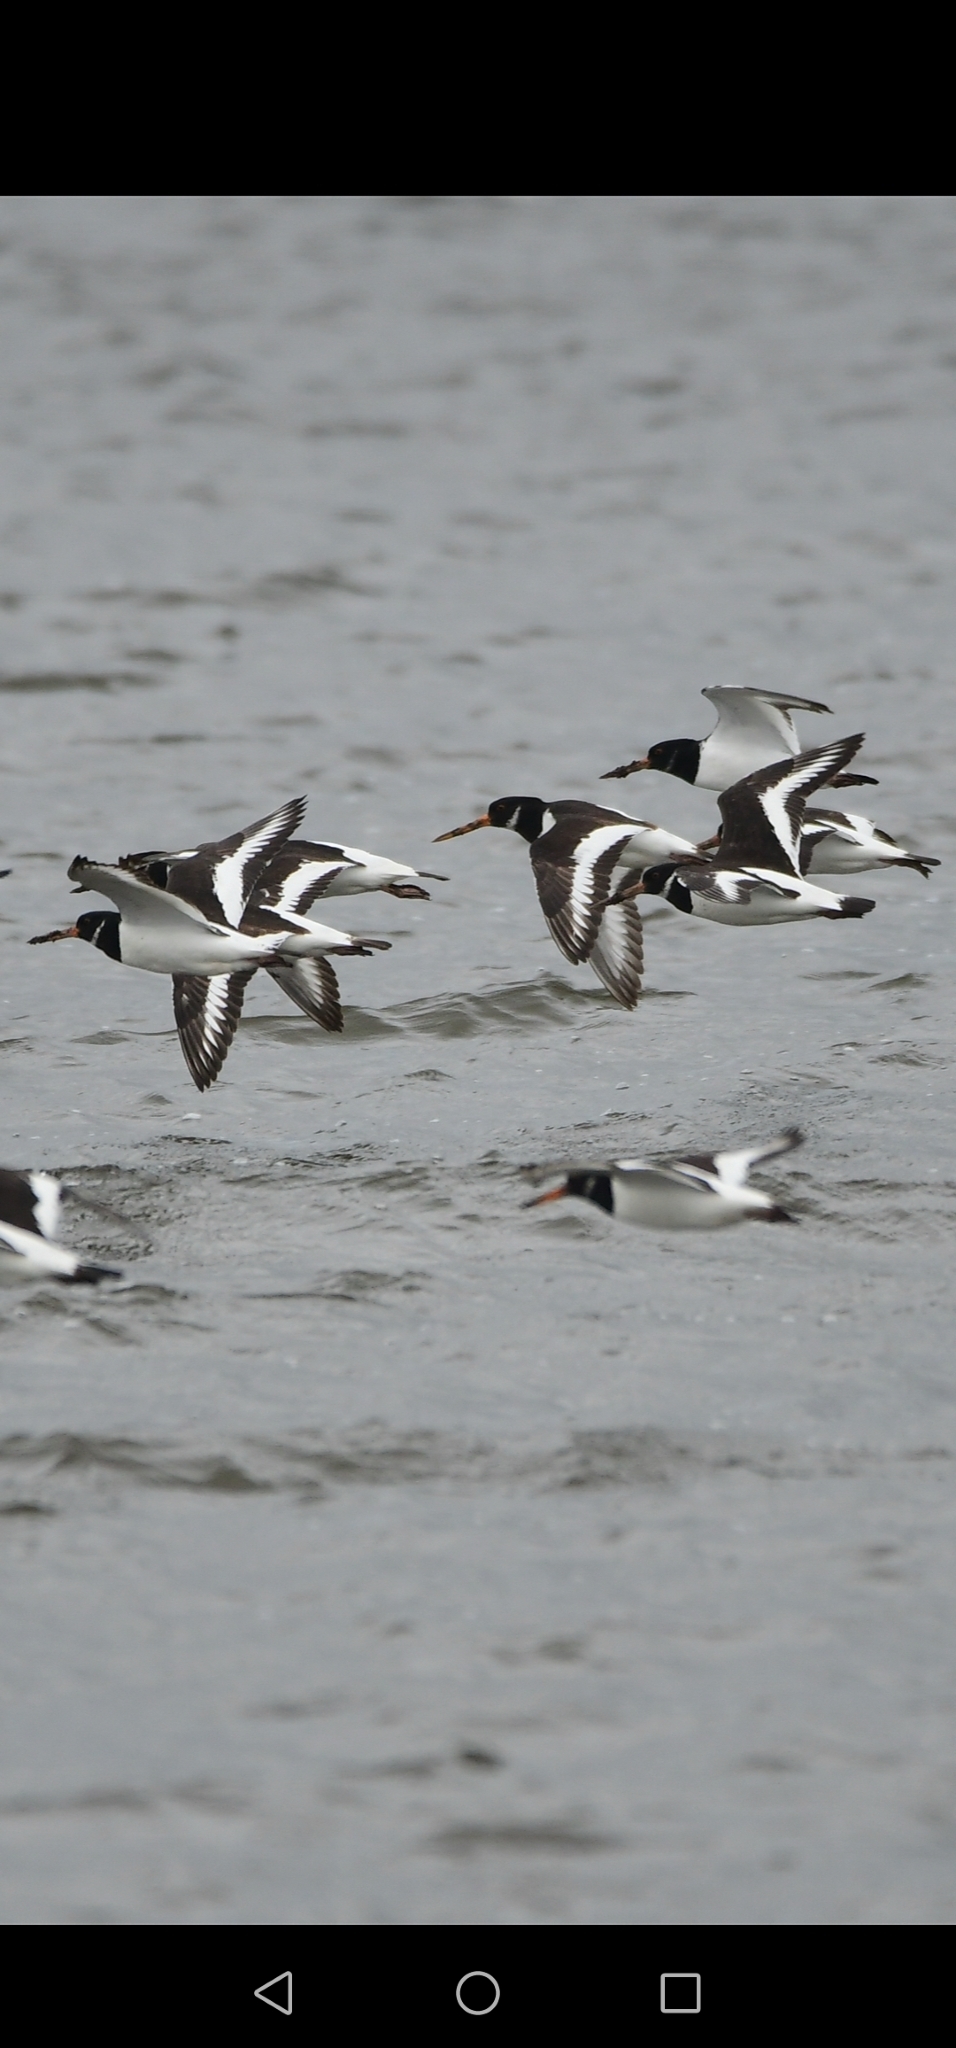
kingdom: Animalia
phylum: Chordata
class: Aves
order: Charadriiformes
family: Haematopodidae
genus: Haematopus
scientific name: Haematopus ostralegus
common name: Eurasian oystercatcher
